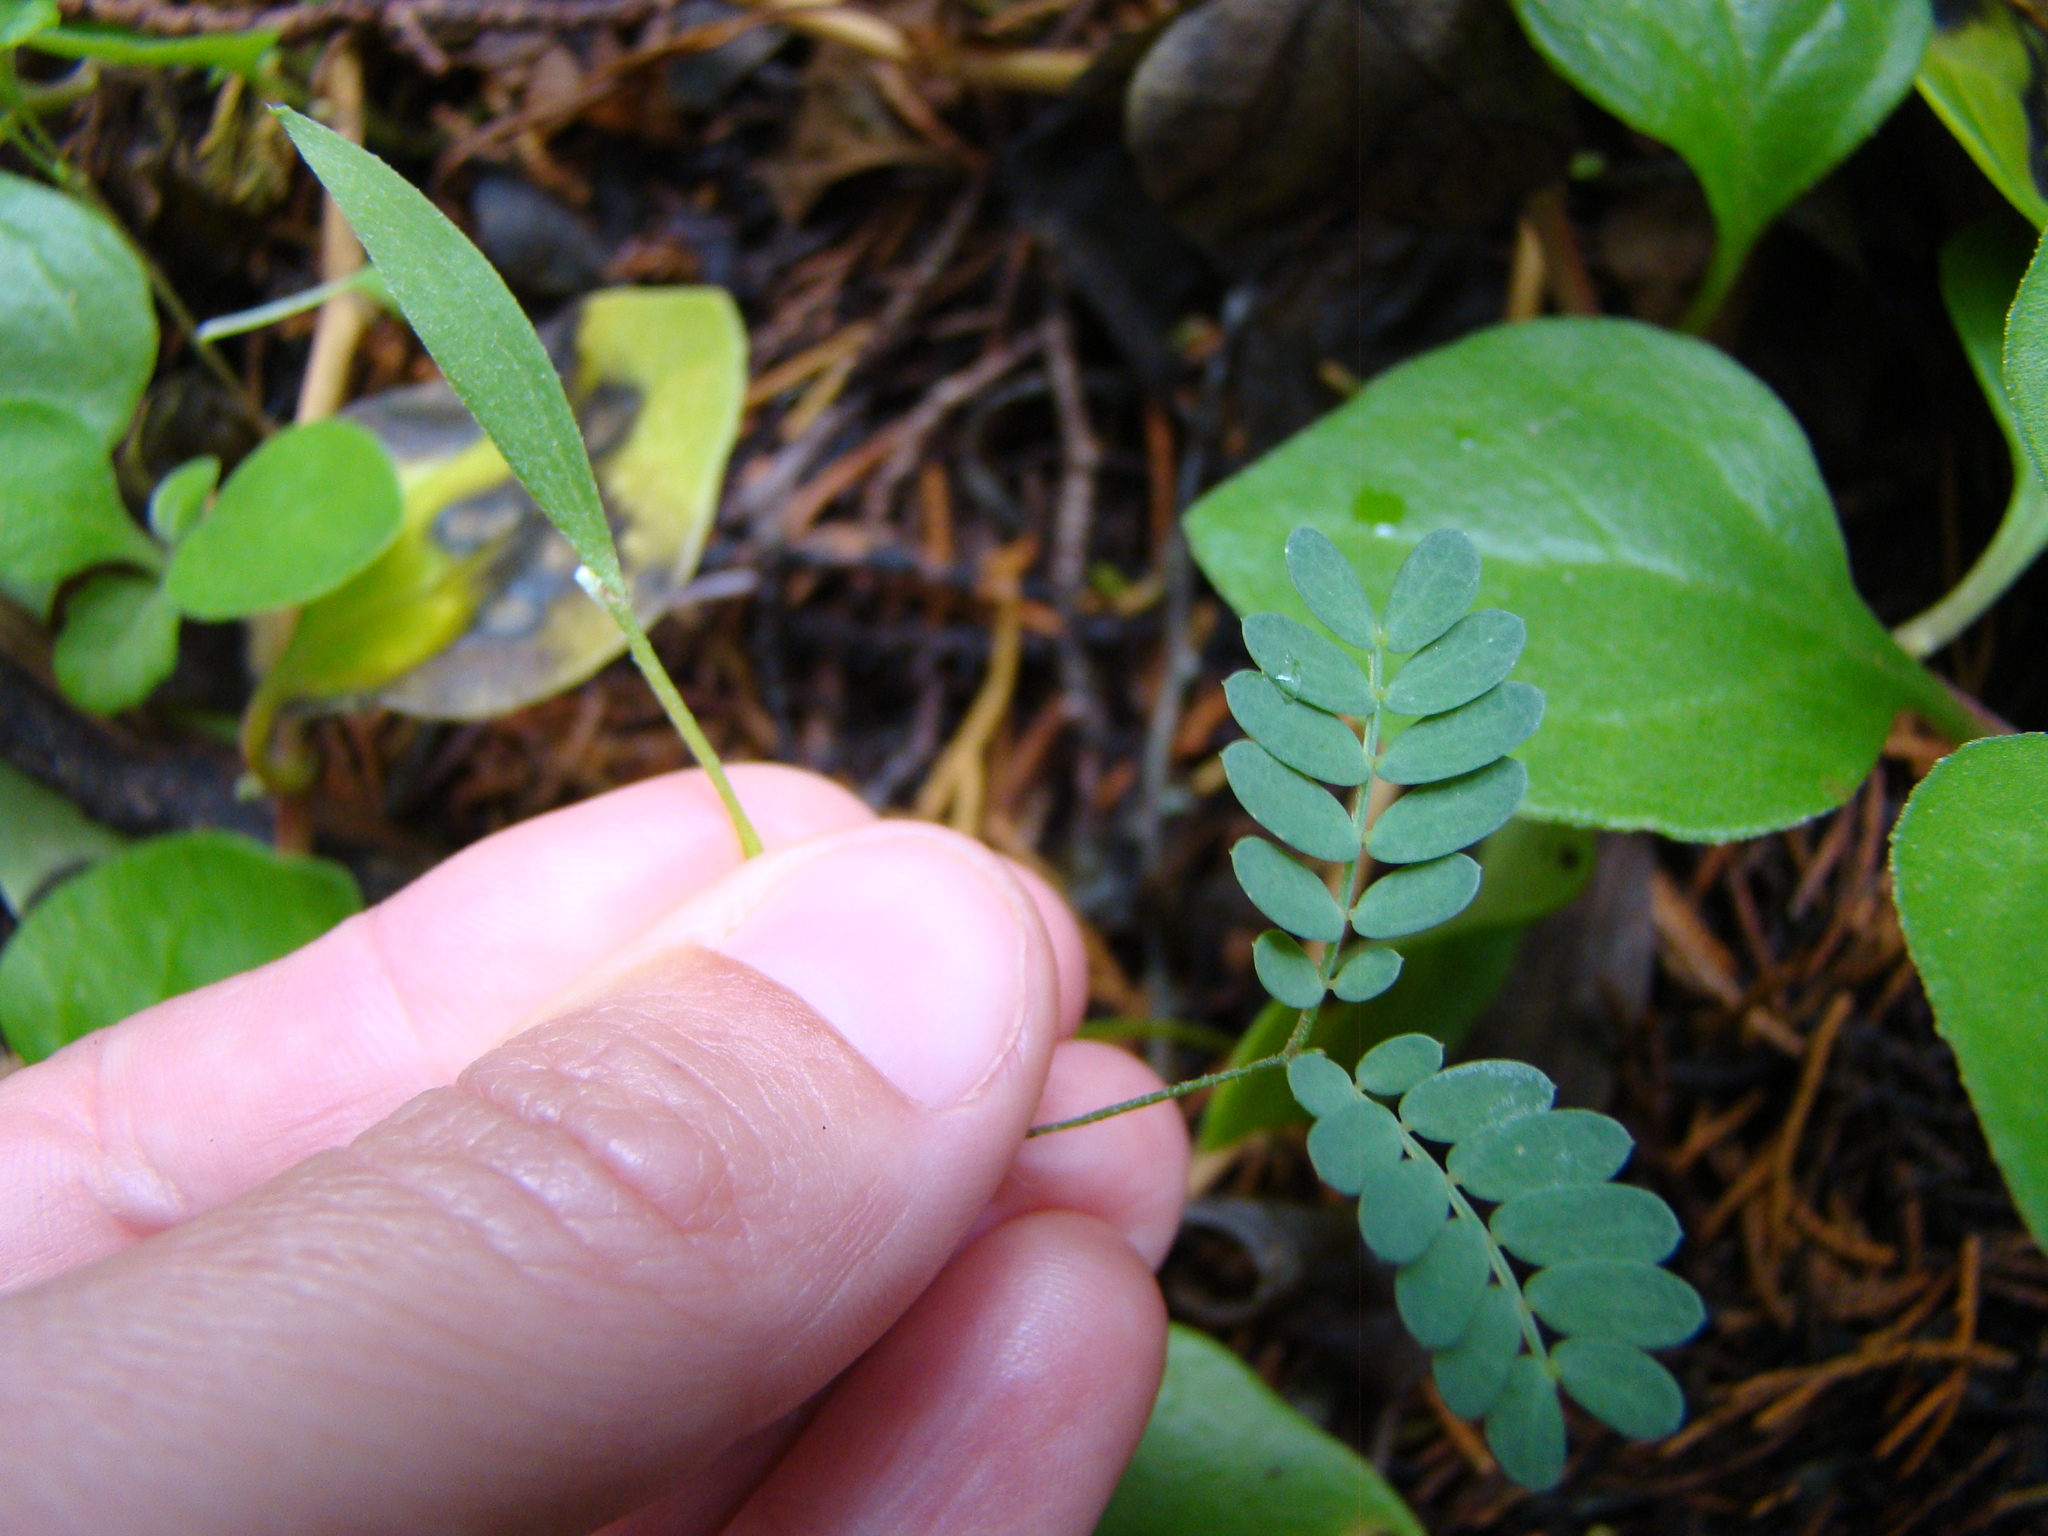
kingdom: Plantae
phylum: Tracheophyta
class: Magnoliopsida
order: Fabales
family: Fabaceae
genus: Acacia
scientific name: Acacia melanoxylon
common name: Blackwood
